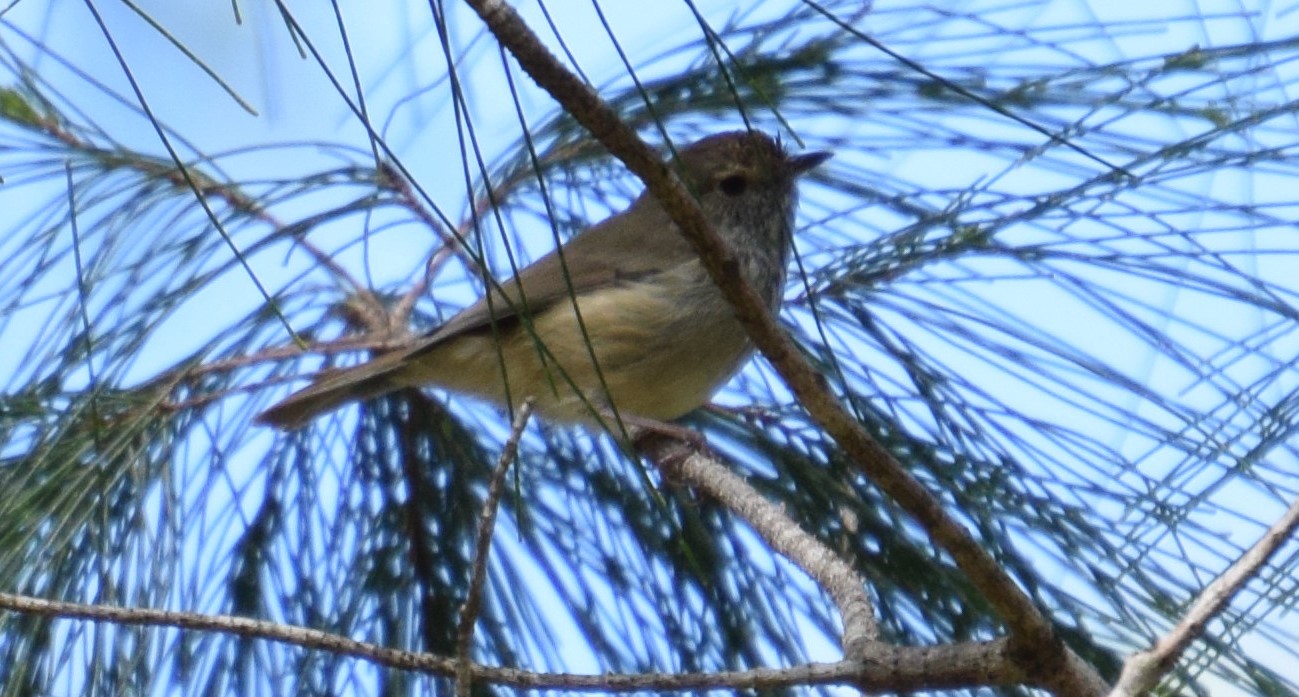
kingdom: Animalia
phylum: Chordata
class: Aves
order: Passeriformes
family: Acanthizidae
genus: Acanthiza
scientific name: Acanthiza pusilla
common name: Brown thornbill
